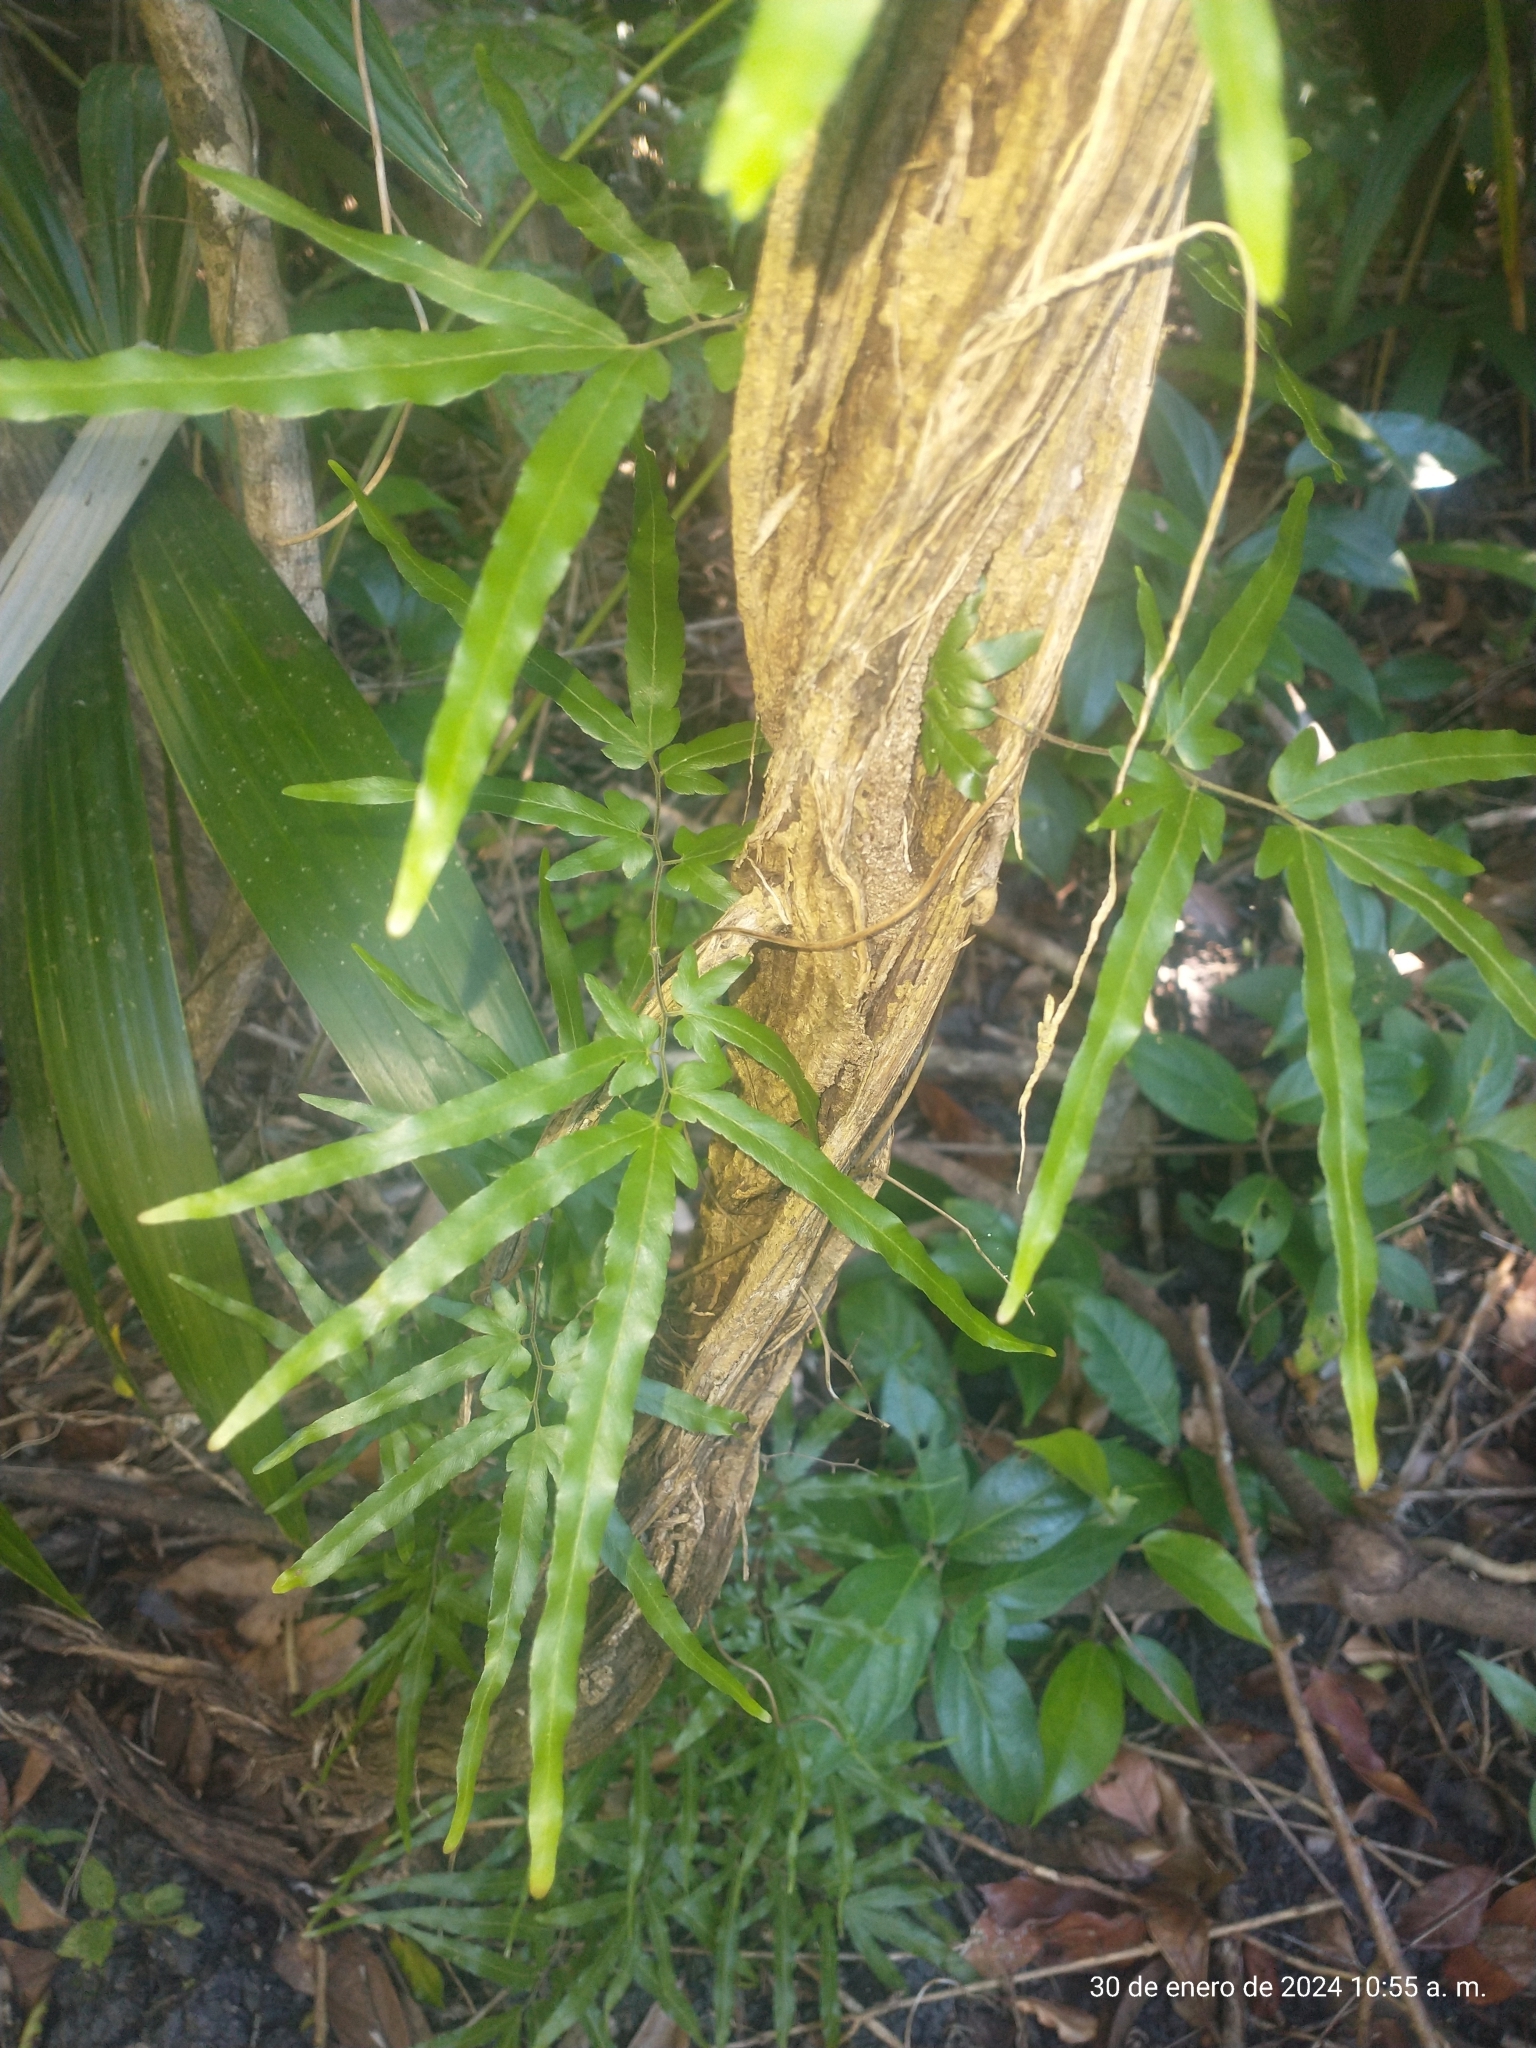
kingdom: Plantae
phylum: Tracheophyta
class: Polypodiopsida
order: Schizaeales
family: Lygodiaceae
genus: Lygodium
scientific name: Lygodium venustum
